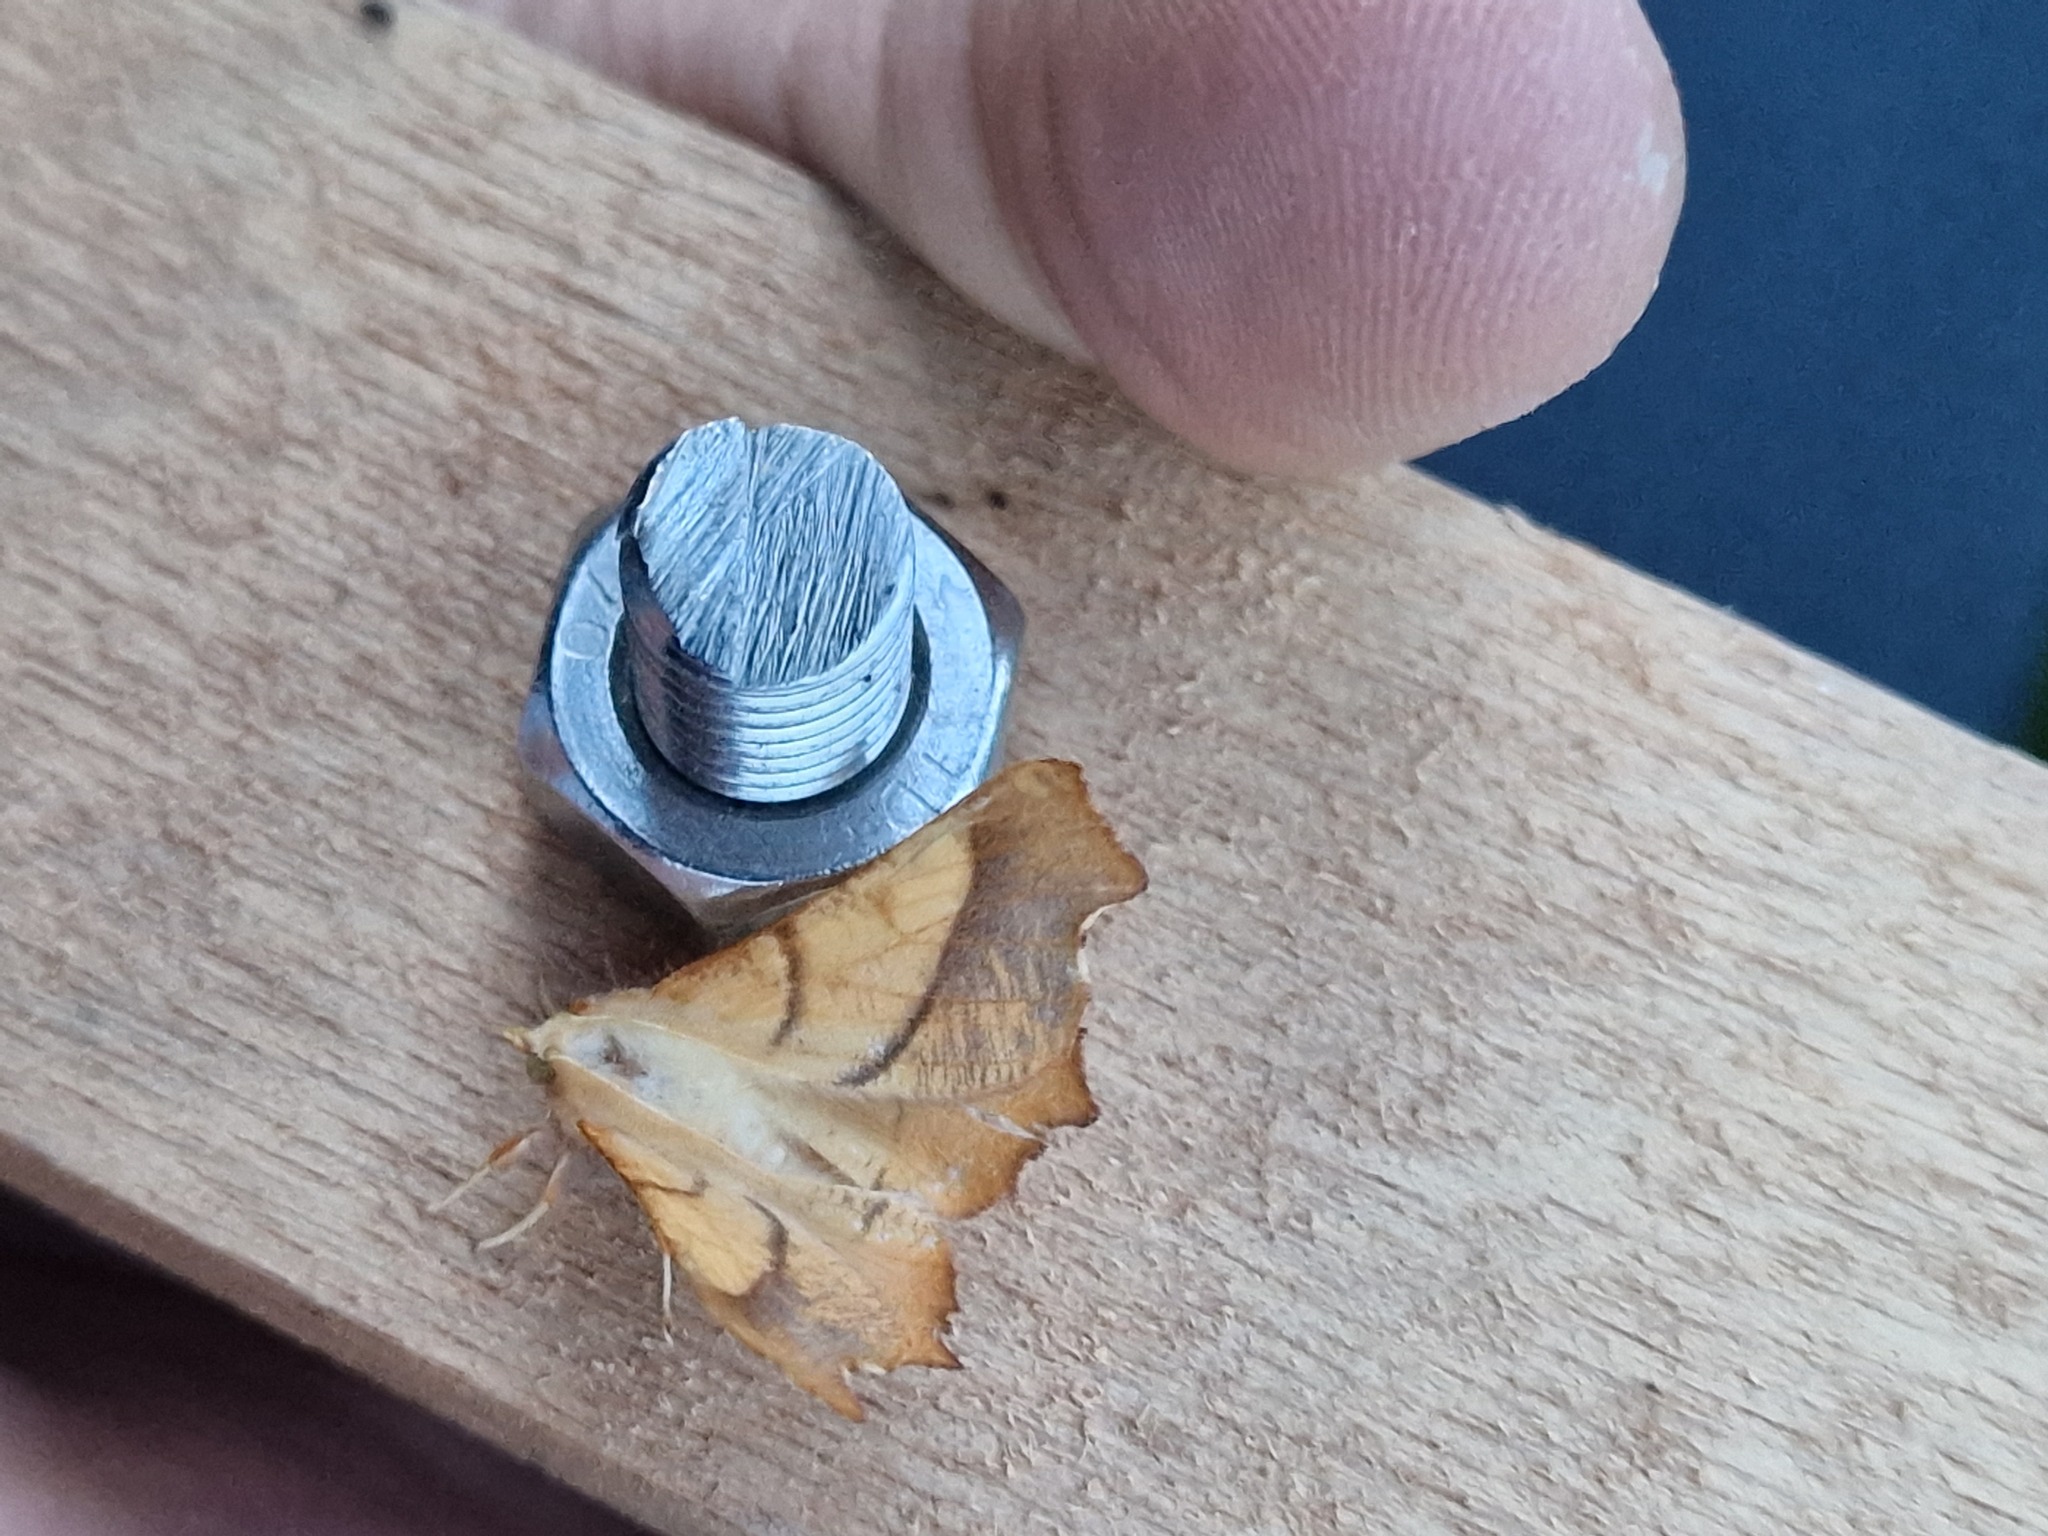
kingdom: Animalia
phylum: Arthropoda
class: Insecta
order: Lepidoptera
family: Geometridae
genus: Ennomos
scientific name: Ennomos fuscantaria
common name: Dusky thorn
